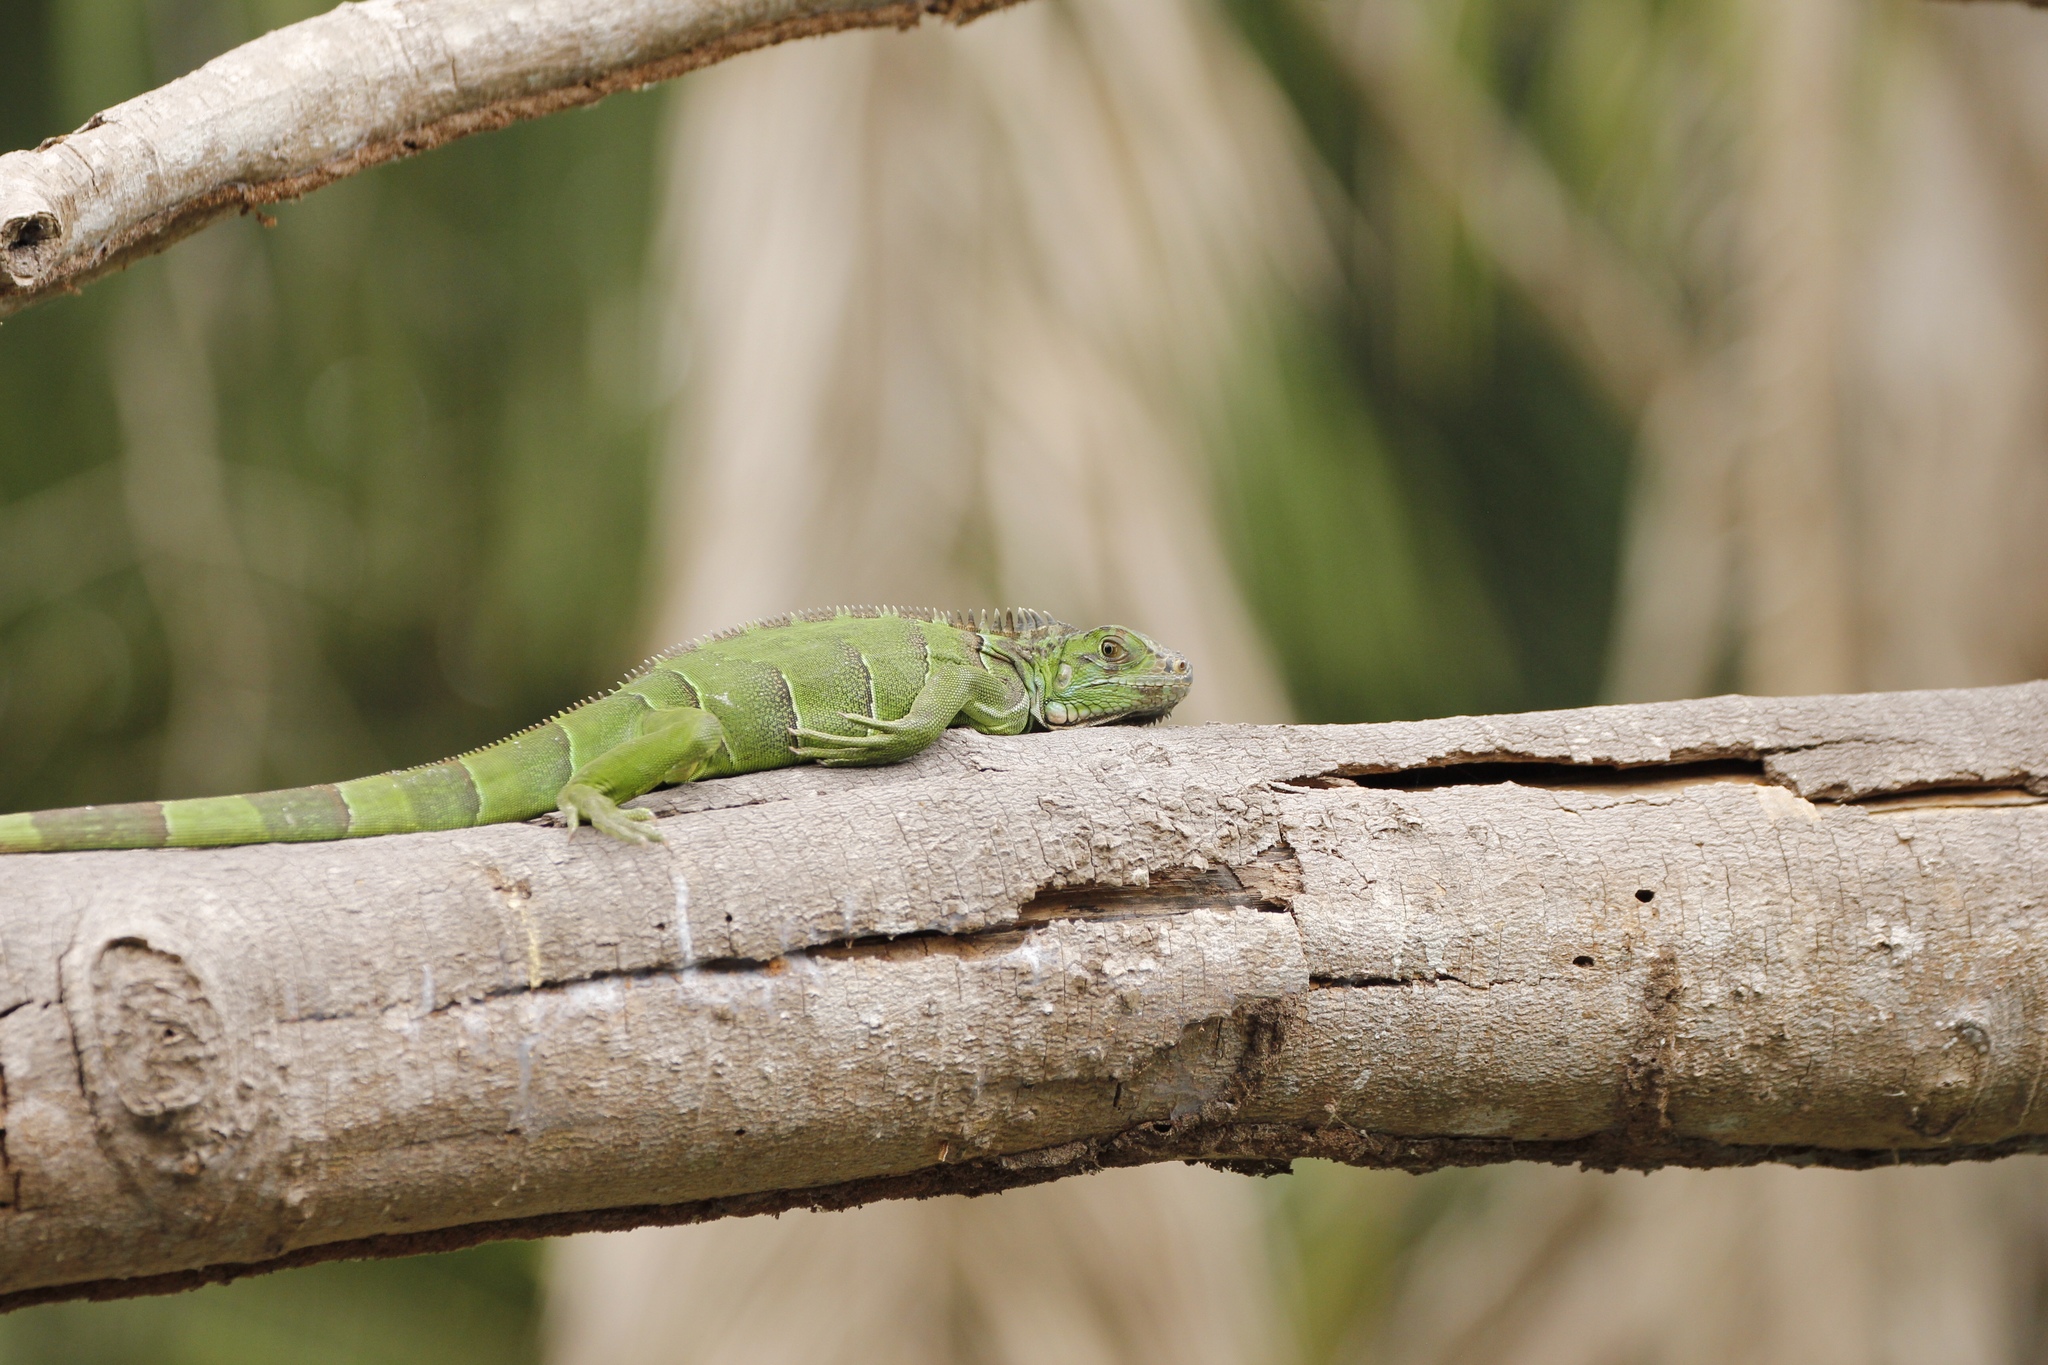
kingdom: Animalia
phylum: Chordata
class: Squamata
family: Iguanidae
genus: Iguana
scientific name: Iguana iguana
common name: Green iguana
